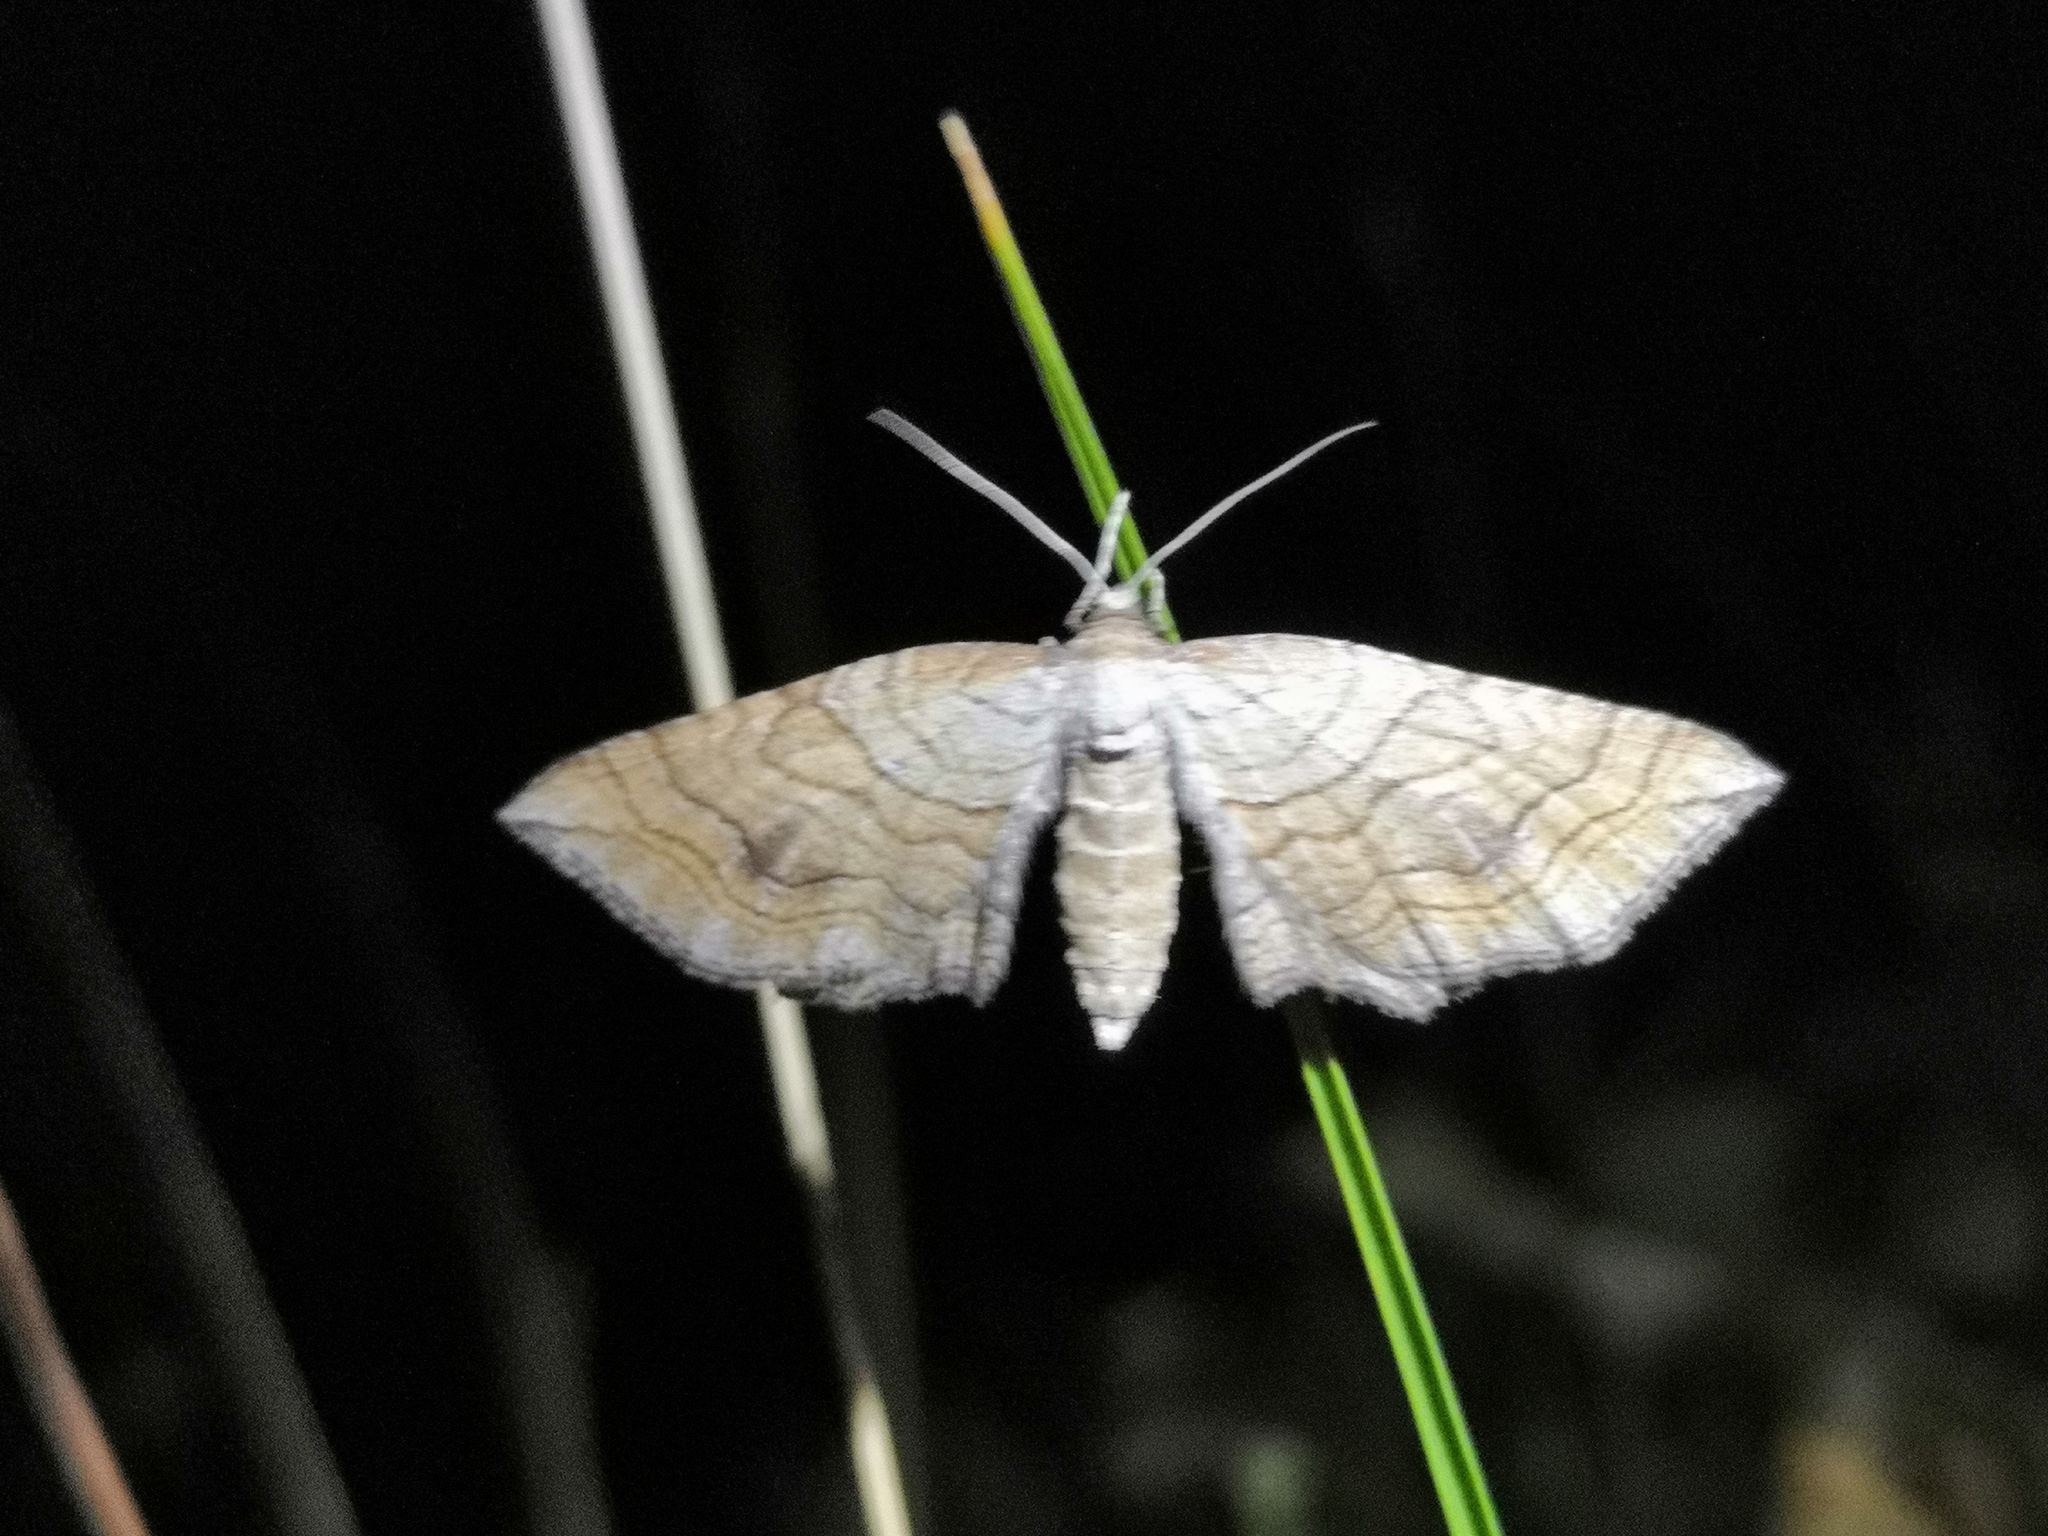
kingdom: Animalia
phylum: Arthropoda
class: Insecta
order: Lepidoptera
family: Geometridae
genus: Coenocalpe
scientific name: Coenocalpe lapidata
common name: Slender-striped rufous
